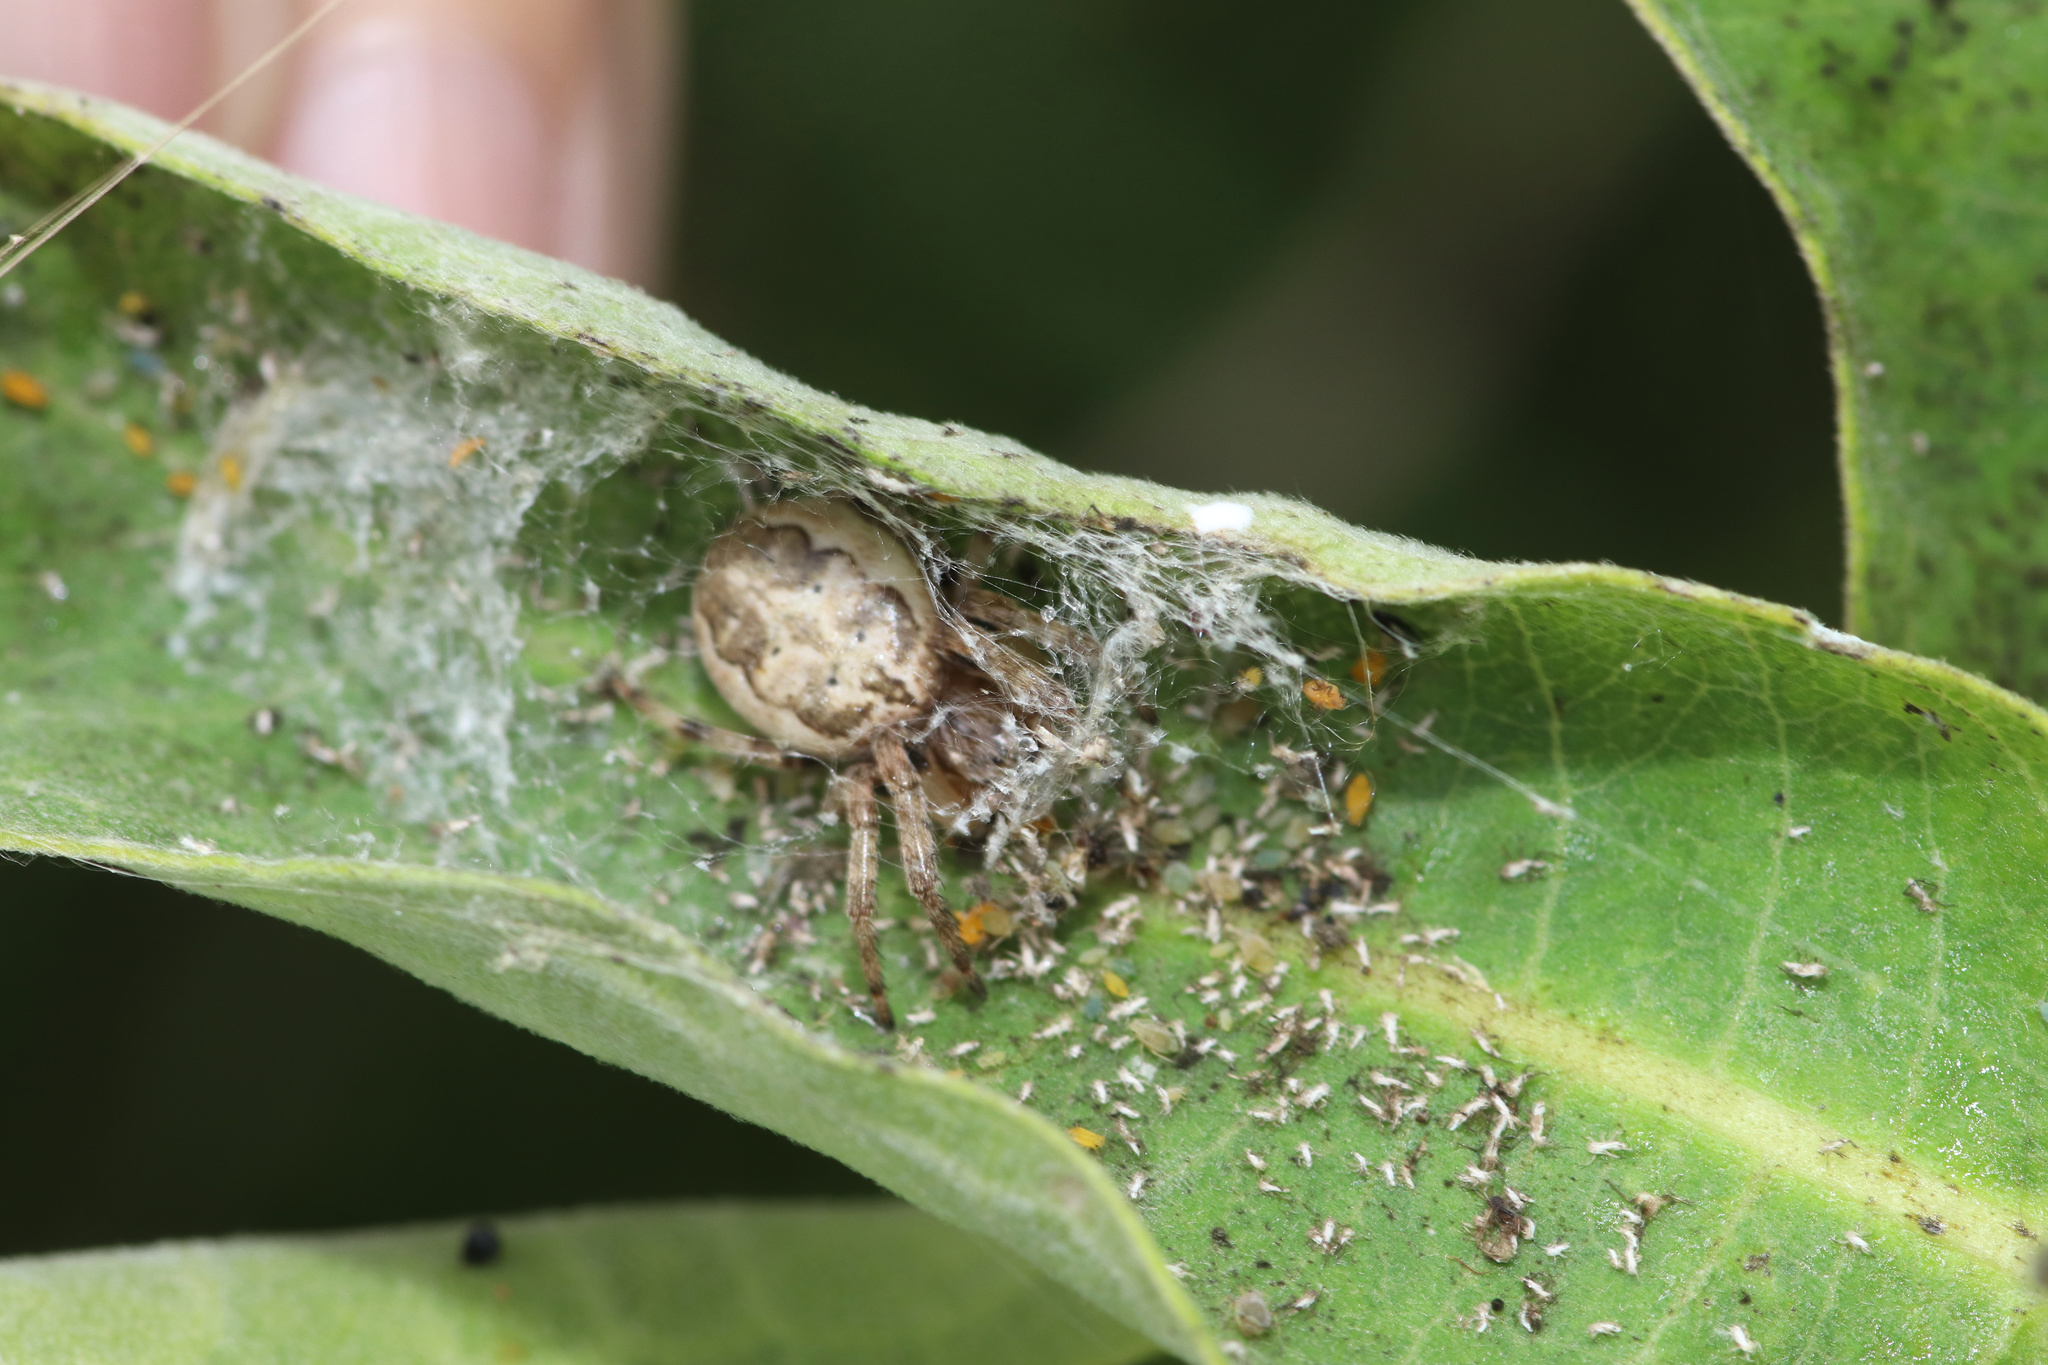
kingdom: Animalia
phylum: Arthropoda
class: Arachnida
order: Araneae
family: Araneidae
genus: Larinioides
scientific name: Larinioides cornutus
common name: Furrow orbweaver
